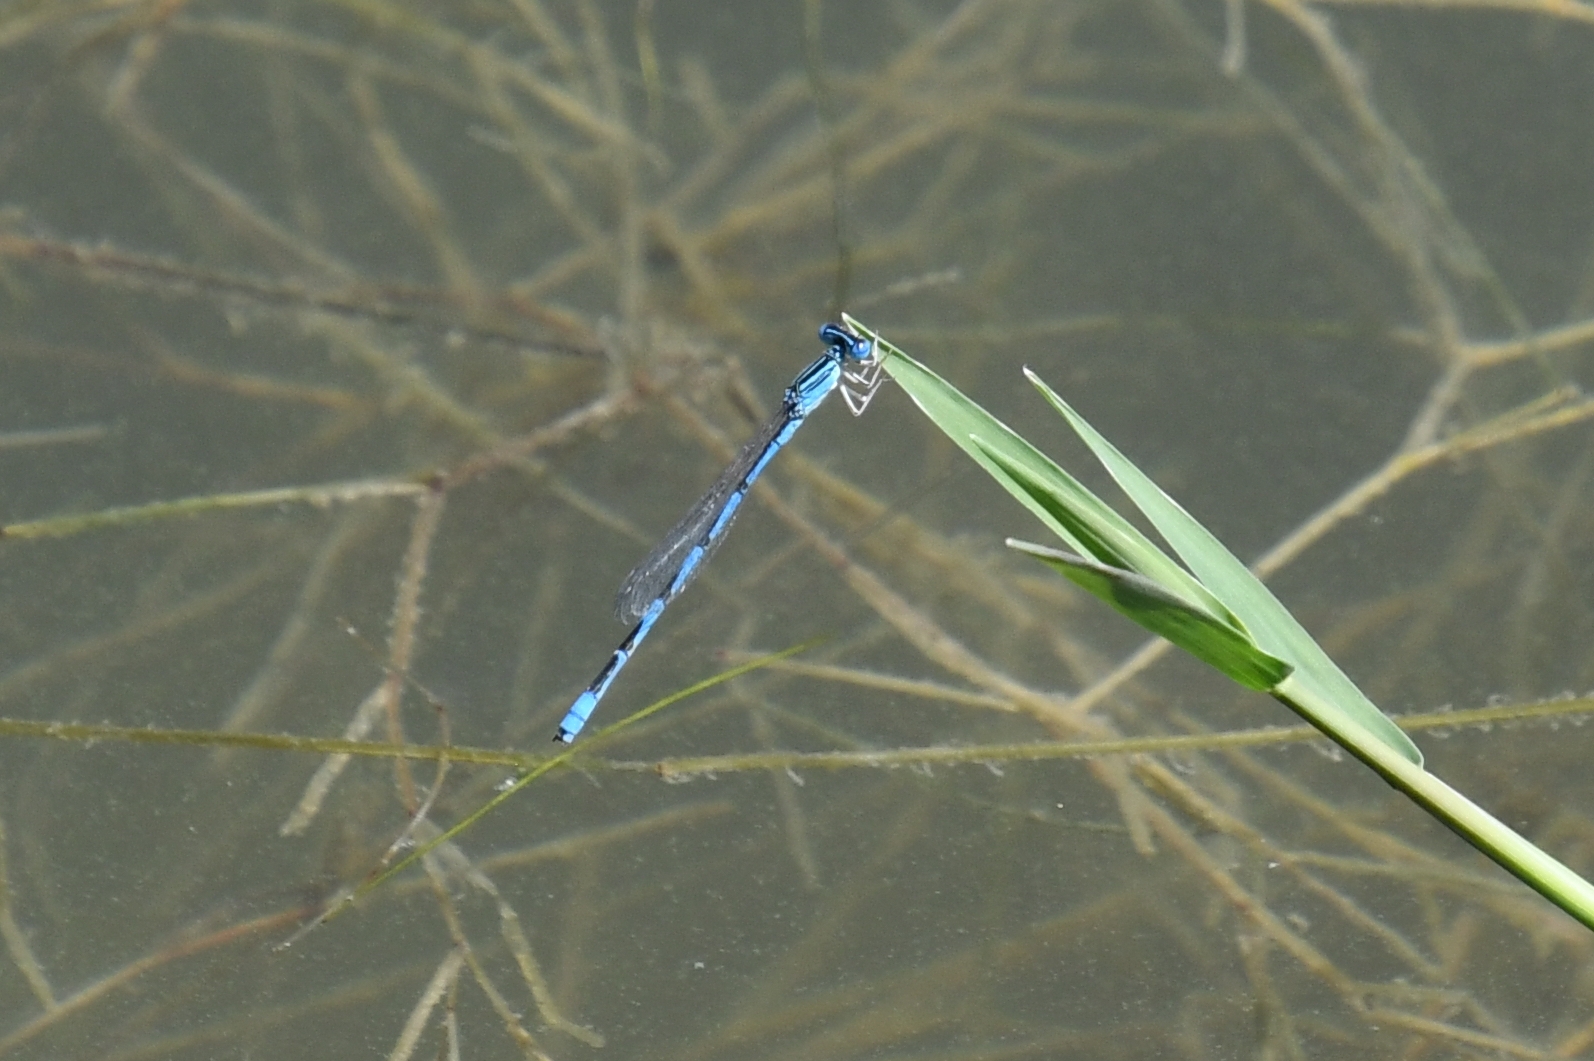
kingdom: Animalia
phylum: Arthropoda
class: Insecta
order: Odonata
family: Coenagrionidae
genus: Enallagma
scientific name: Enallagma basidens
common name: Double-striped bluet
